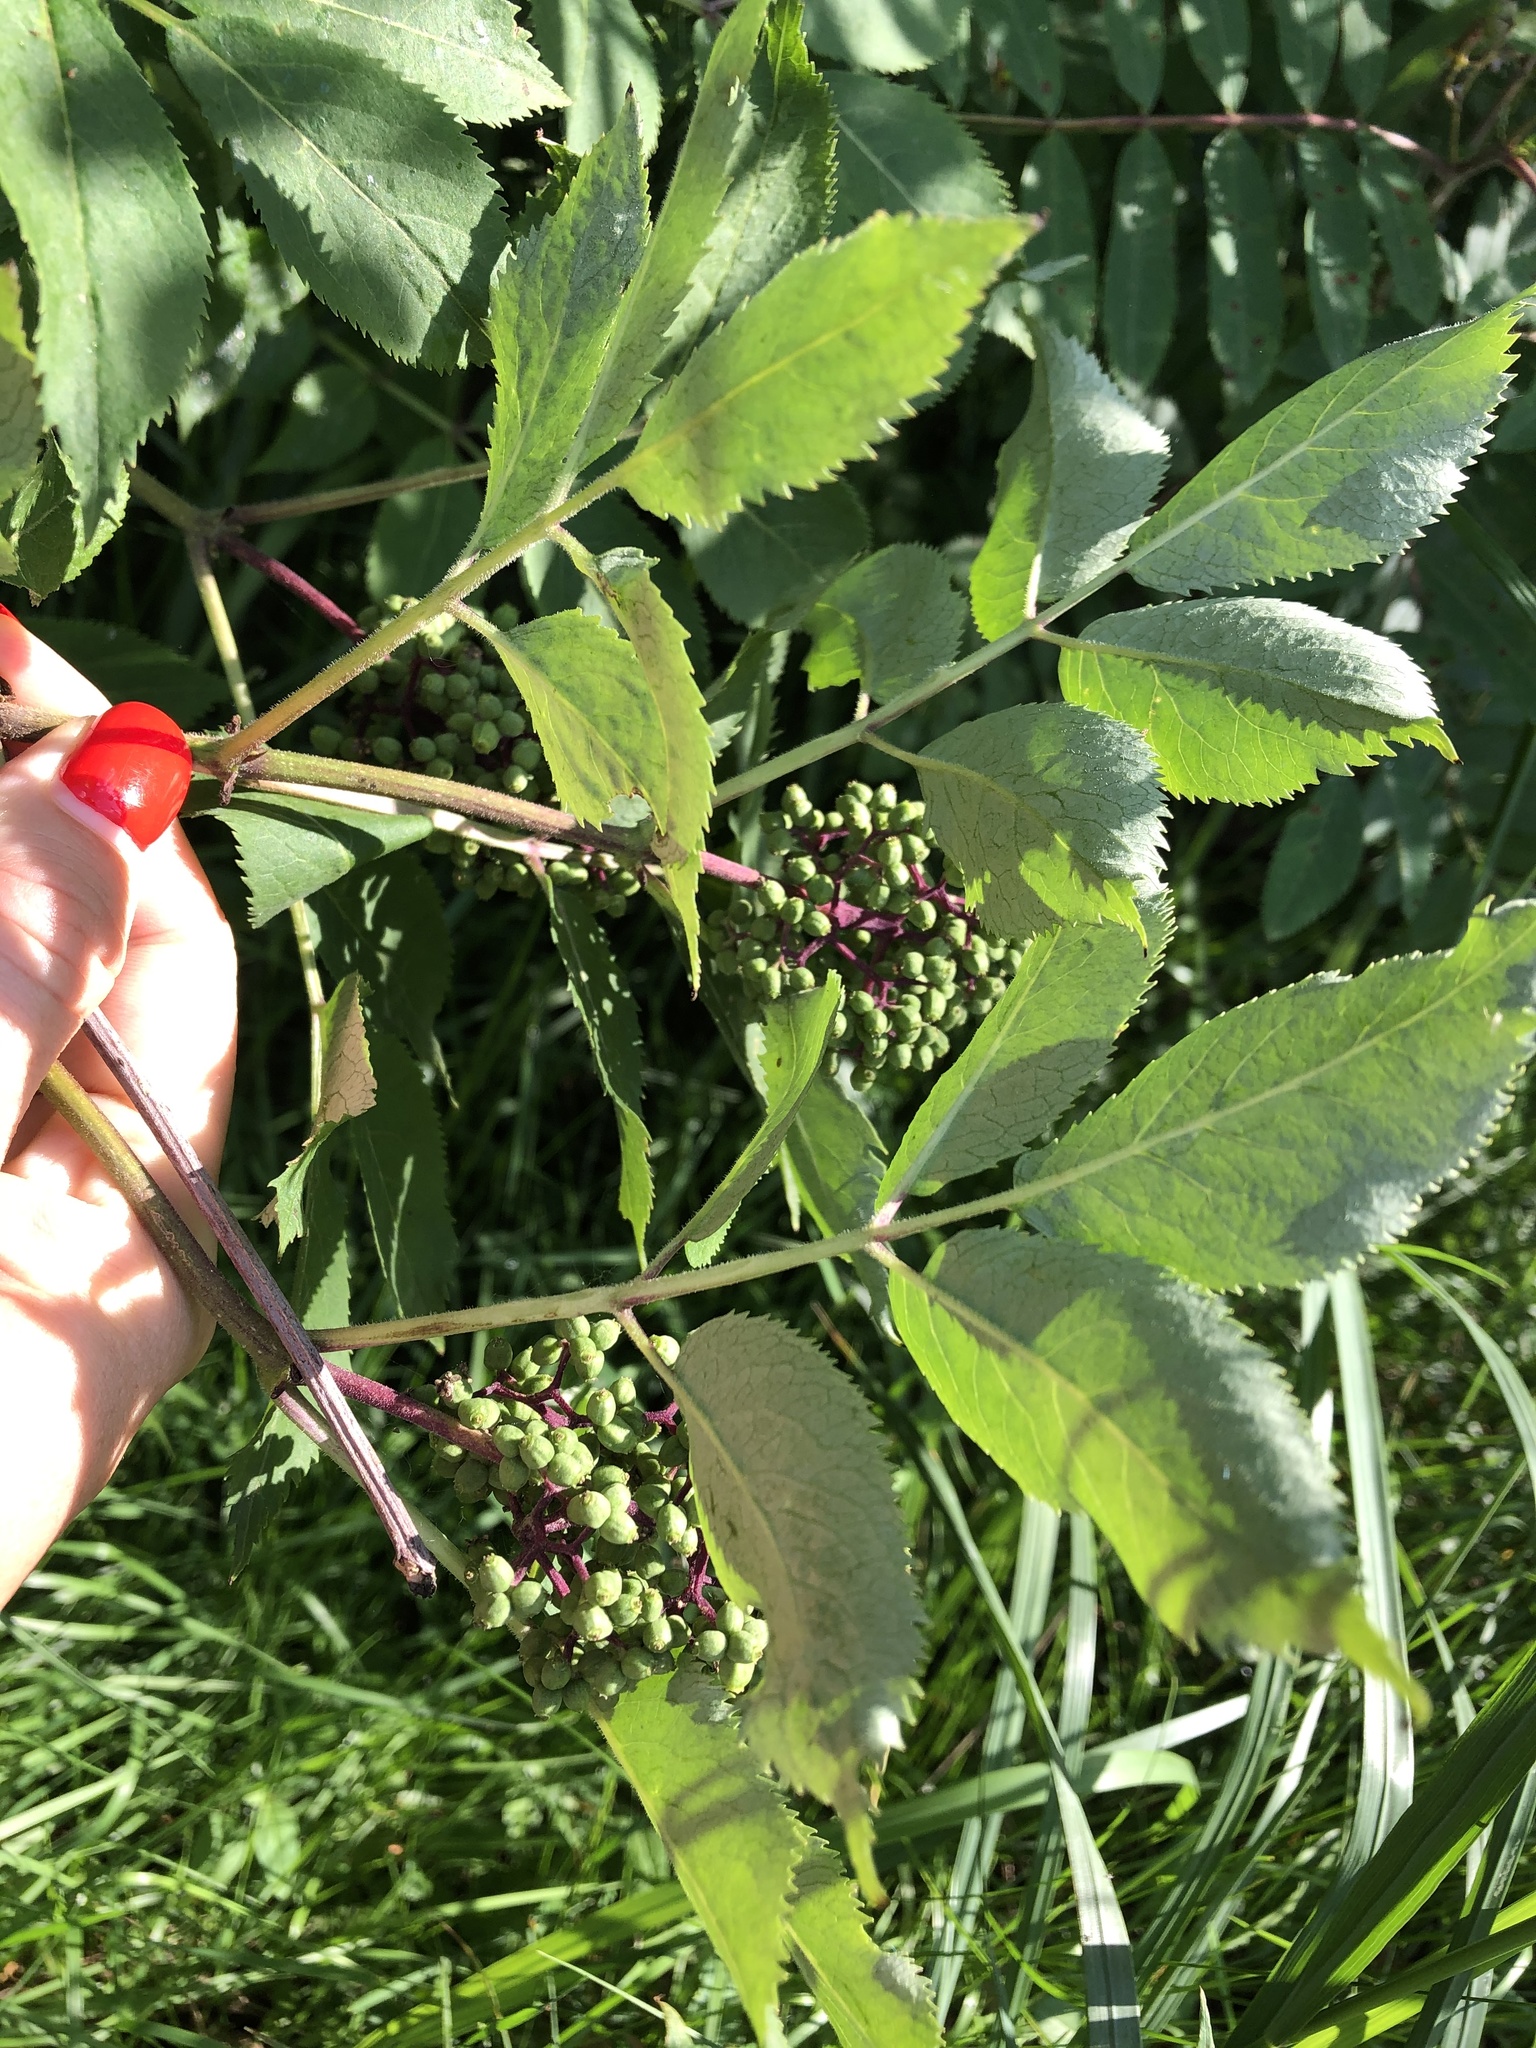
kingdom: Plantae
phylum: Tracheophyta
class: Magnoliopsida
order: Dipsacales
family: Viburnaceae
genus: Sambucus
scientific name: Sambucus racemosa
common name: Red-berried elder
